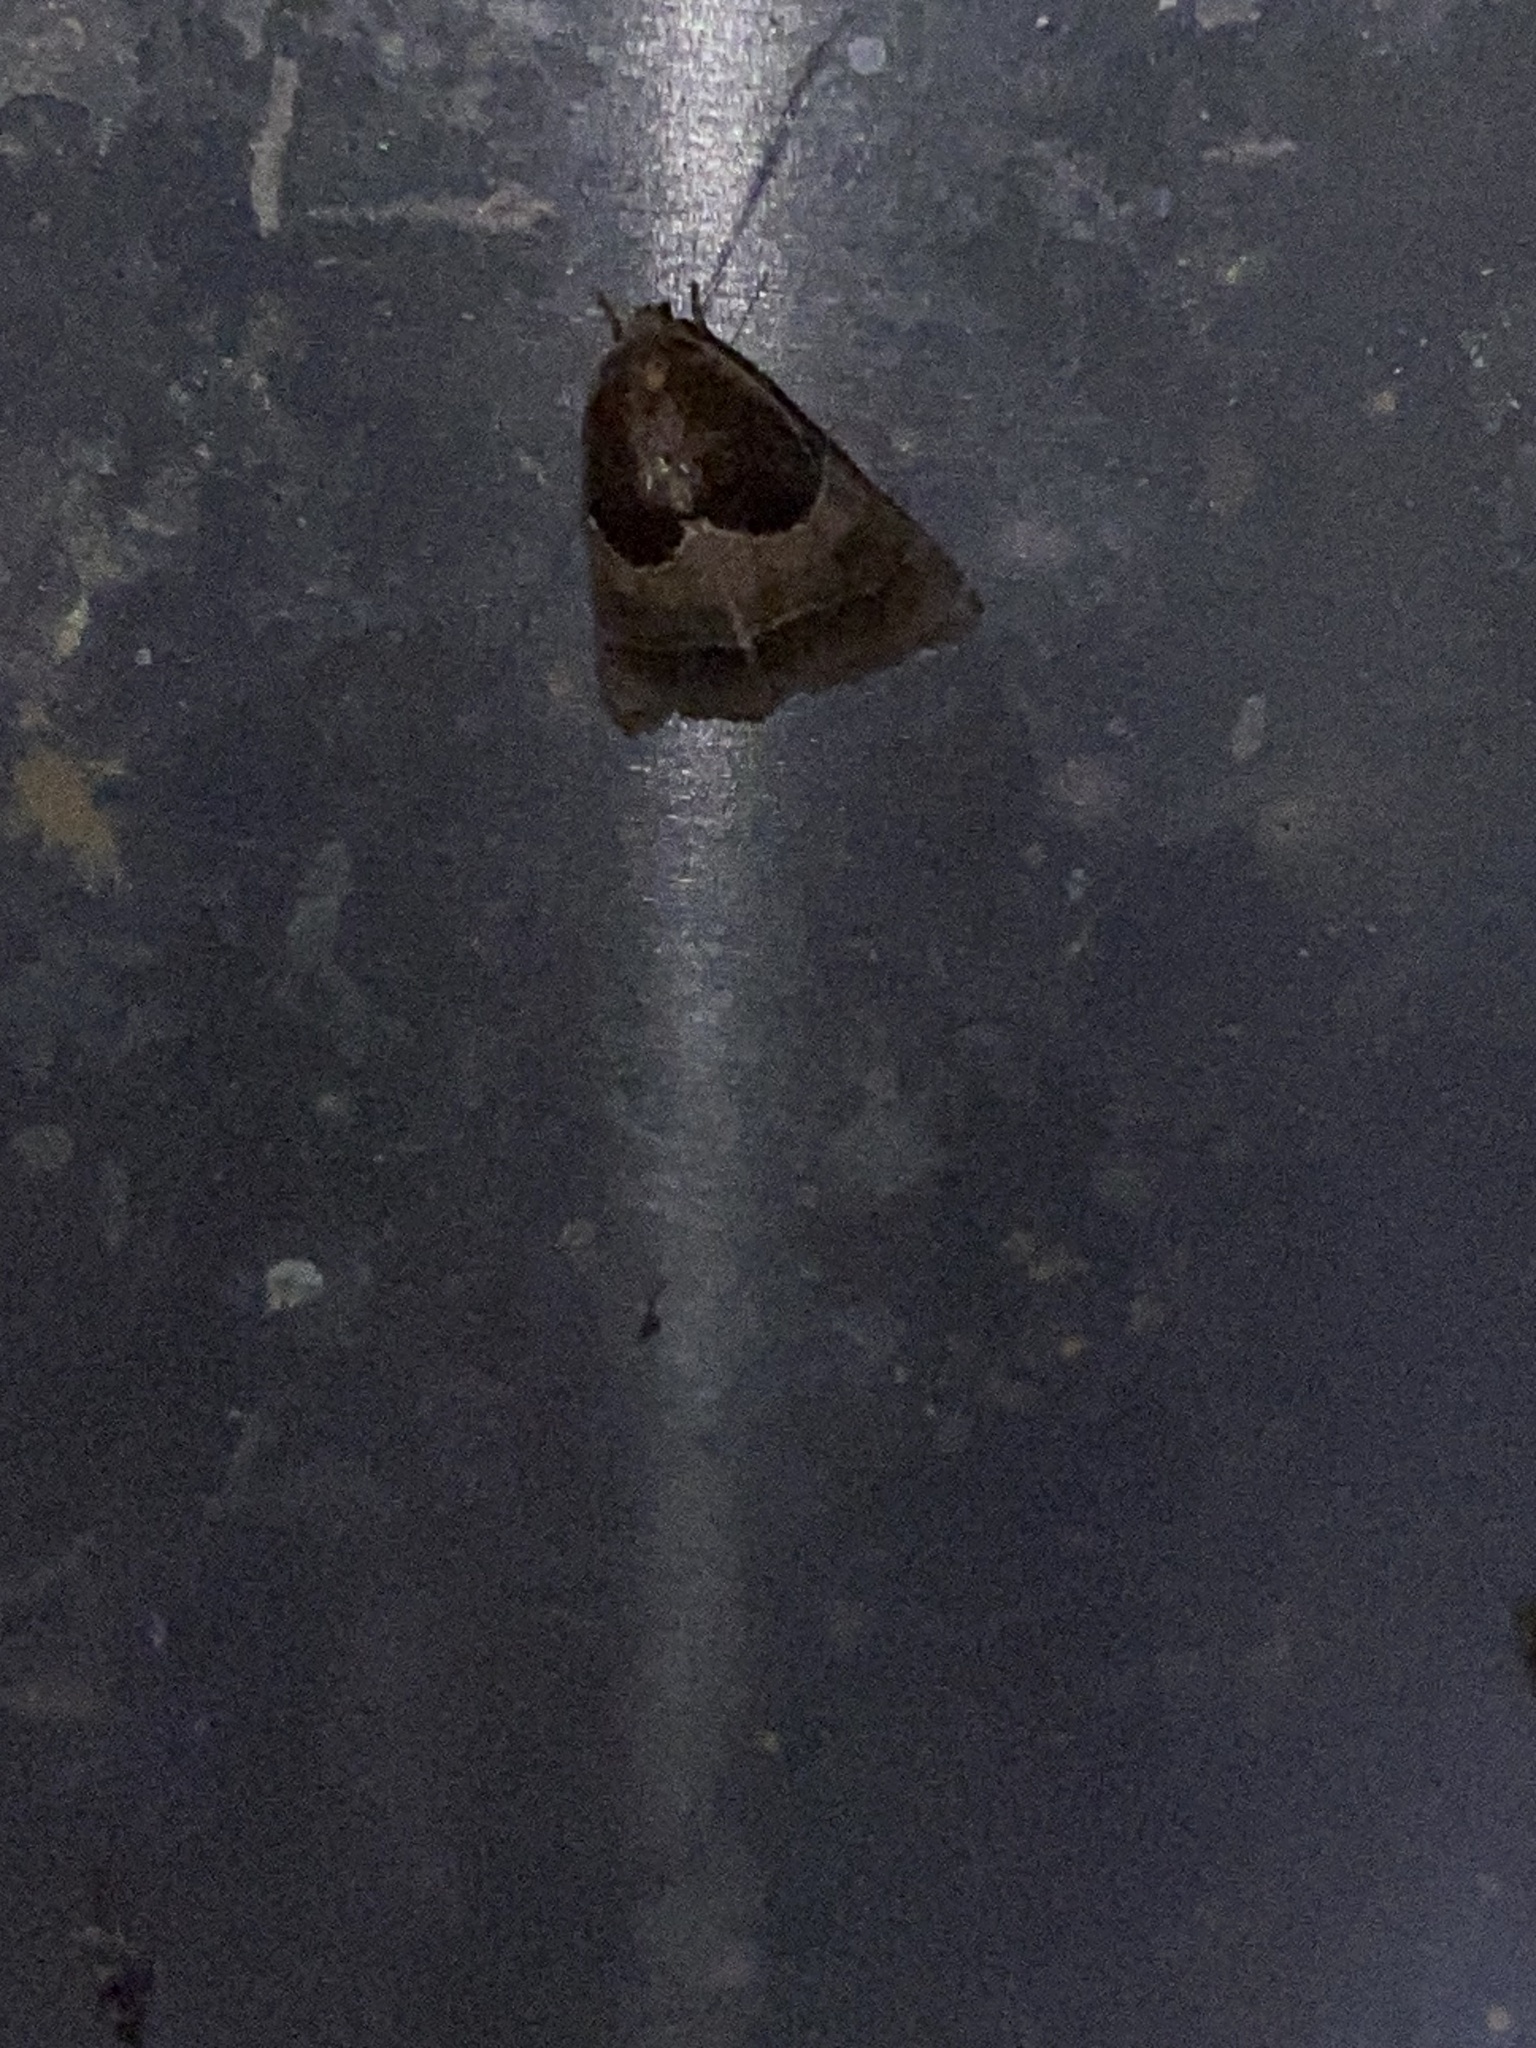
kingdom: Animalia
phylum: Arthropoda
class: Insecta
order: Lepidoptera
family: Noctuidae
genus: Schinia
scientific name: Schinia arcigera
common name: Arcigera flower moth
